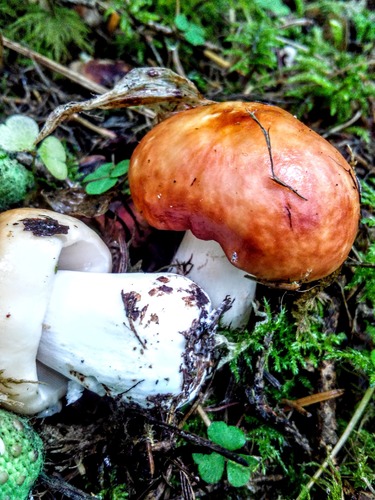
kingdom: Fungi
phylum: Basidiomycota
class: Agaricomycetes
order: Russulales
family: Russulaceae
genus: Russula
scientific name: Russula
